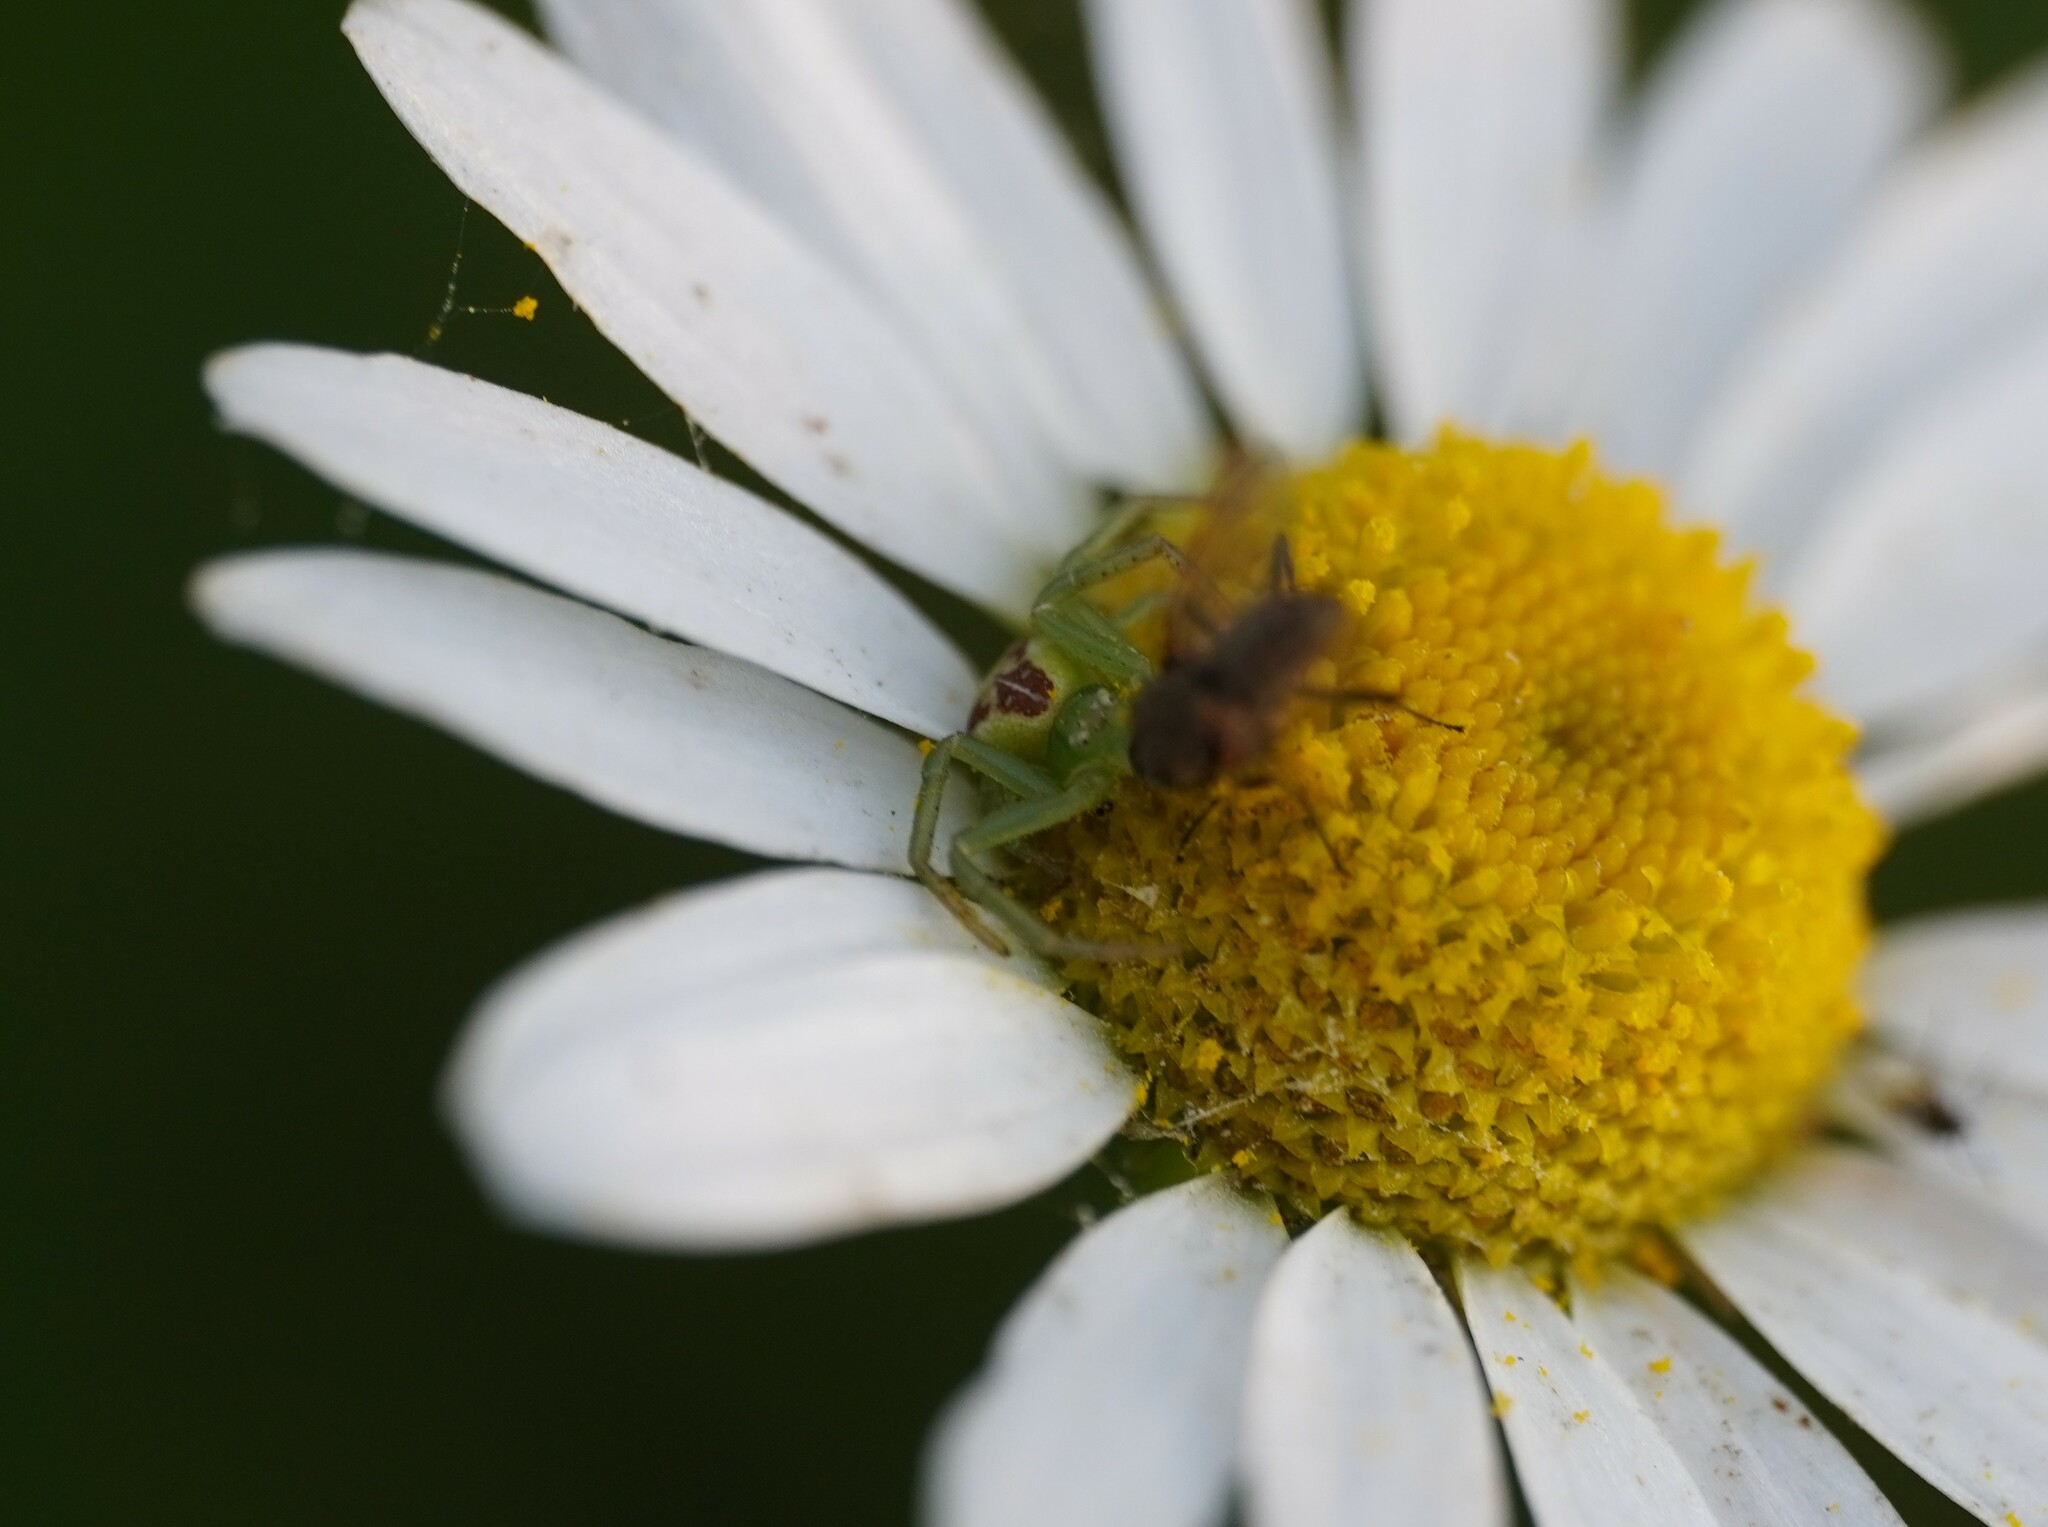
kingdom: Animalia
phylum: Arthropoda
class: Arachnida
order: Araneae
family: Thomisidae
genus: Ebrechtella
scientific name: Ebrechtella tricuspidata
